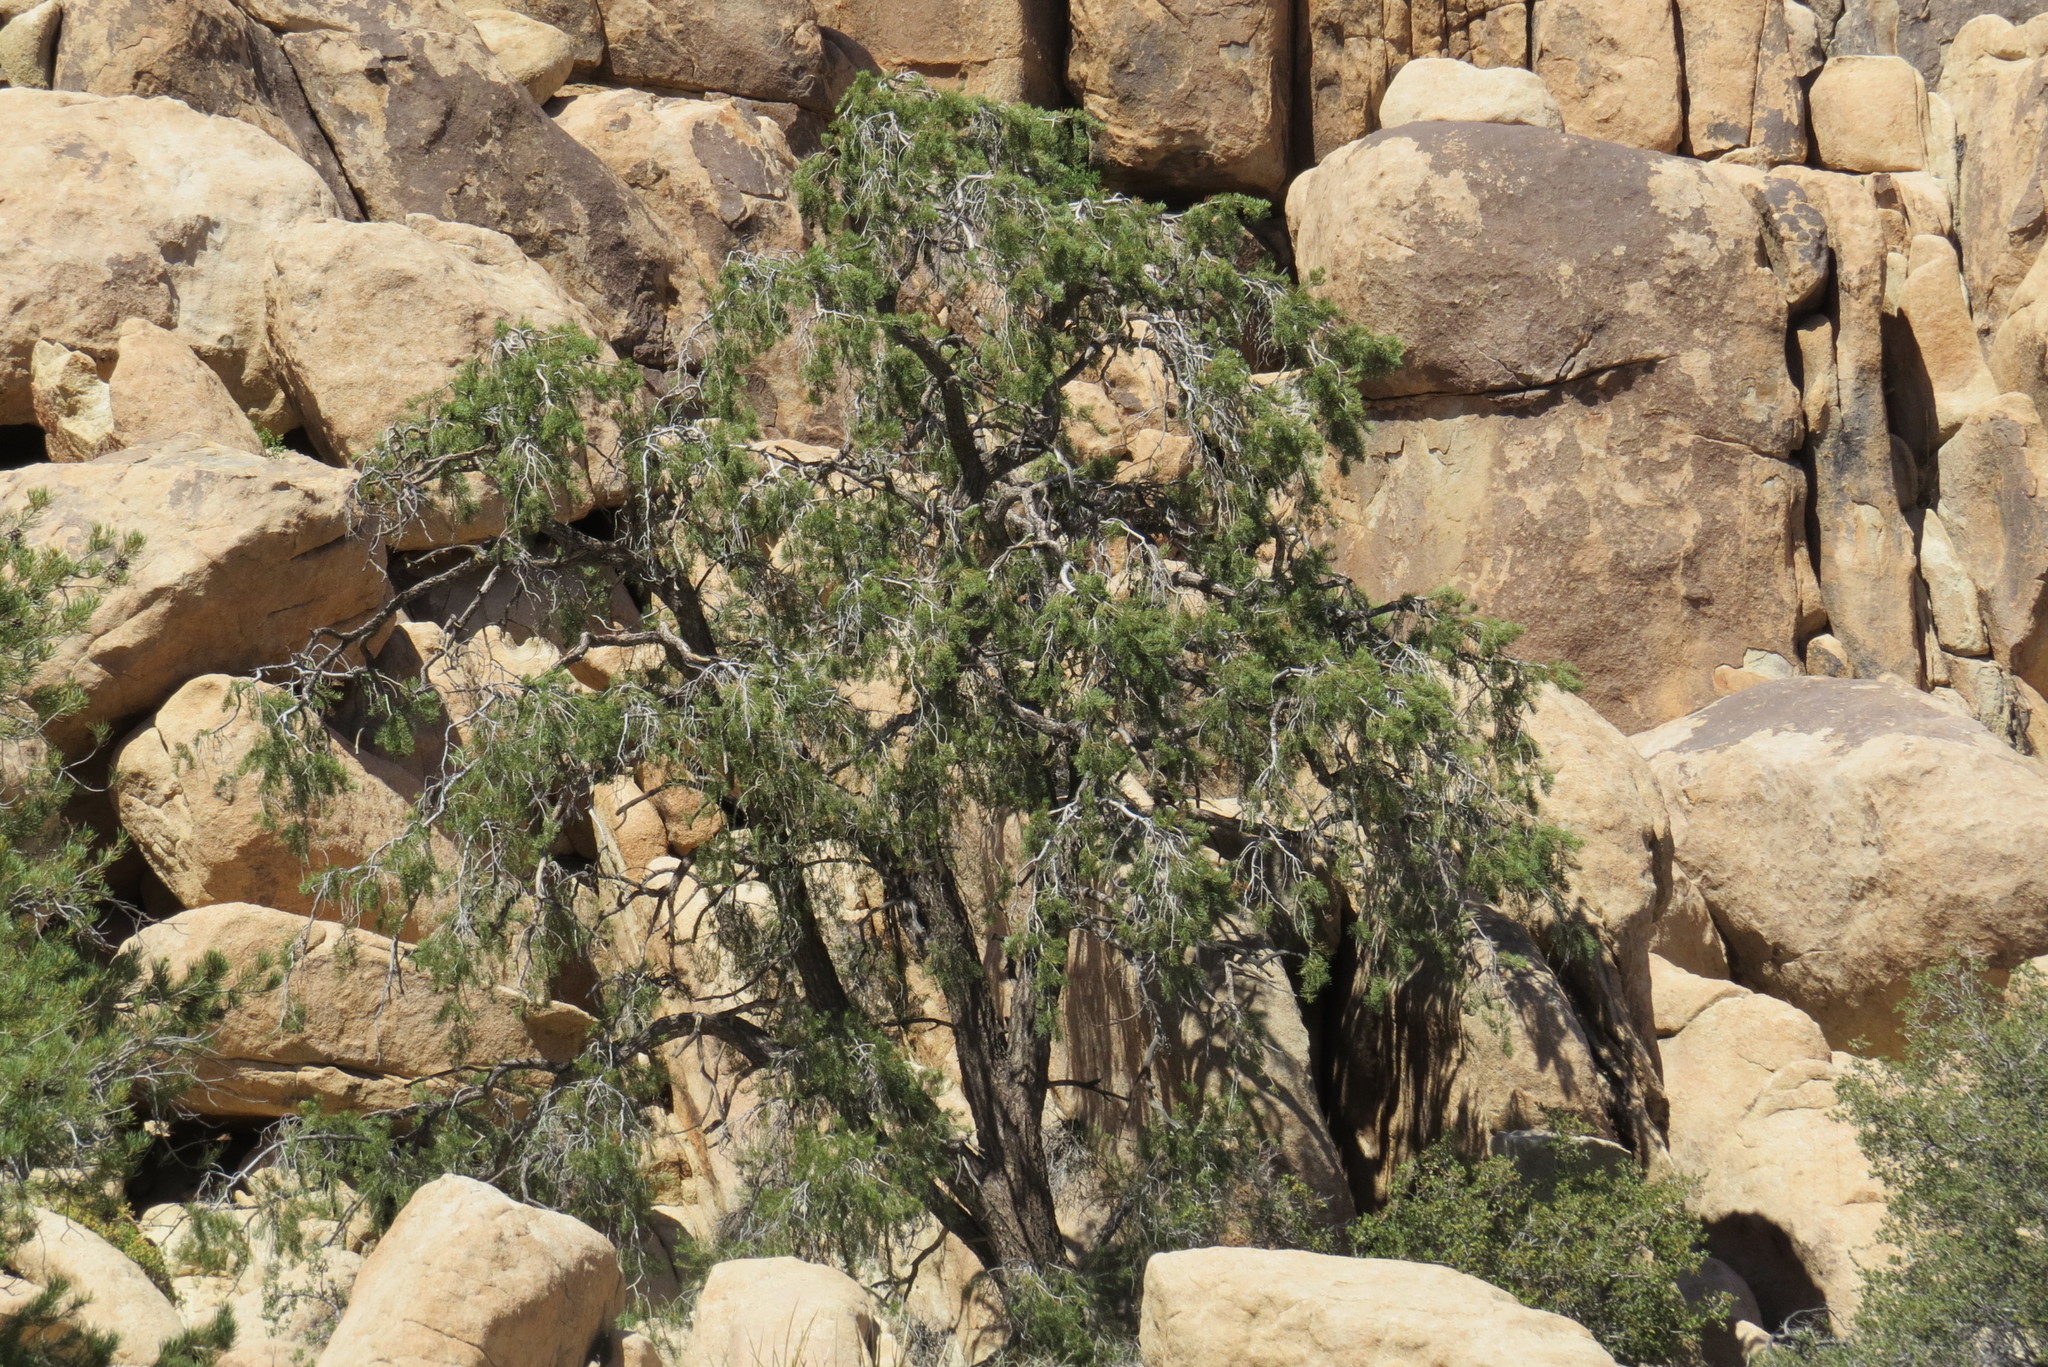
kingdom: Plantae
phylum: Tracheophyta
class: Pinopsida
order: Pinales
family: Pinaceae
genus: Pinus
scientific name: Pinus monophylla
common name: One-leaved nut pine
